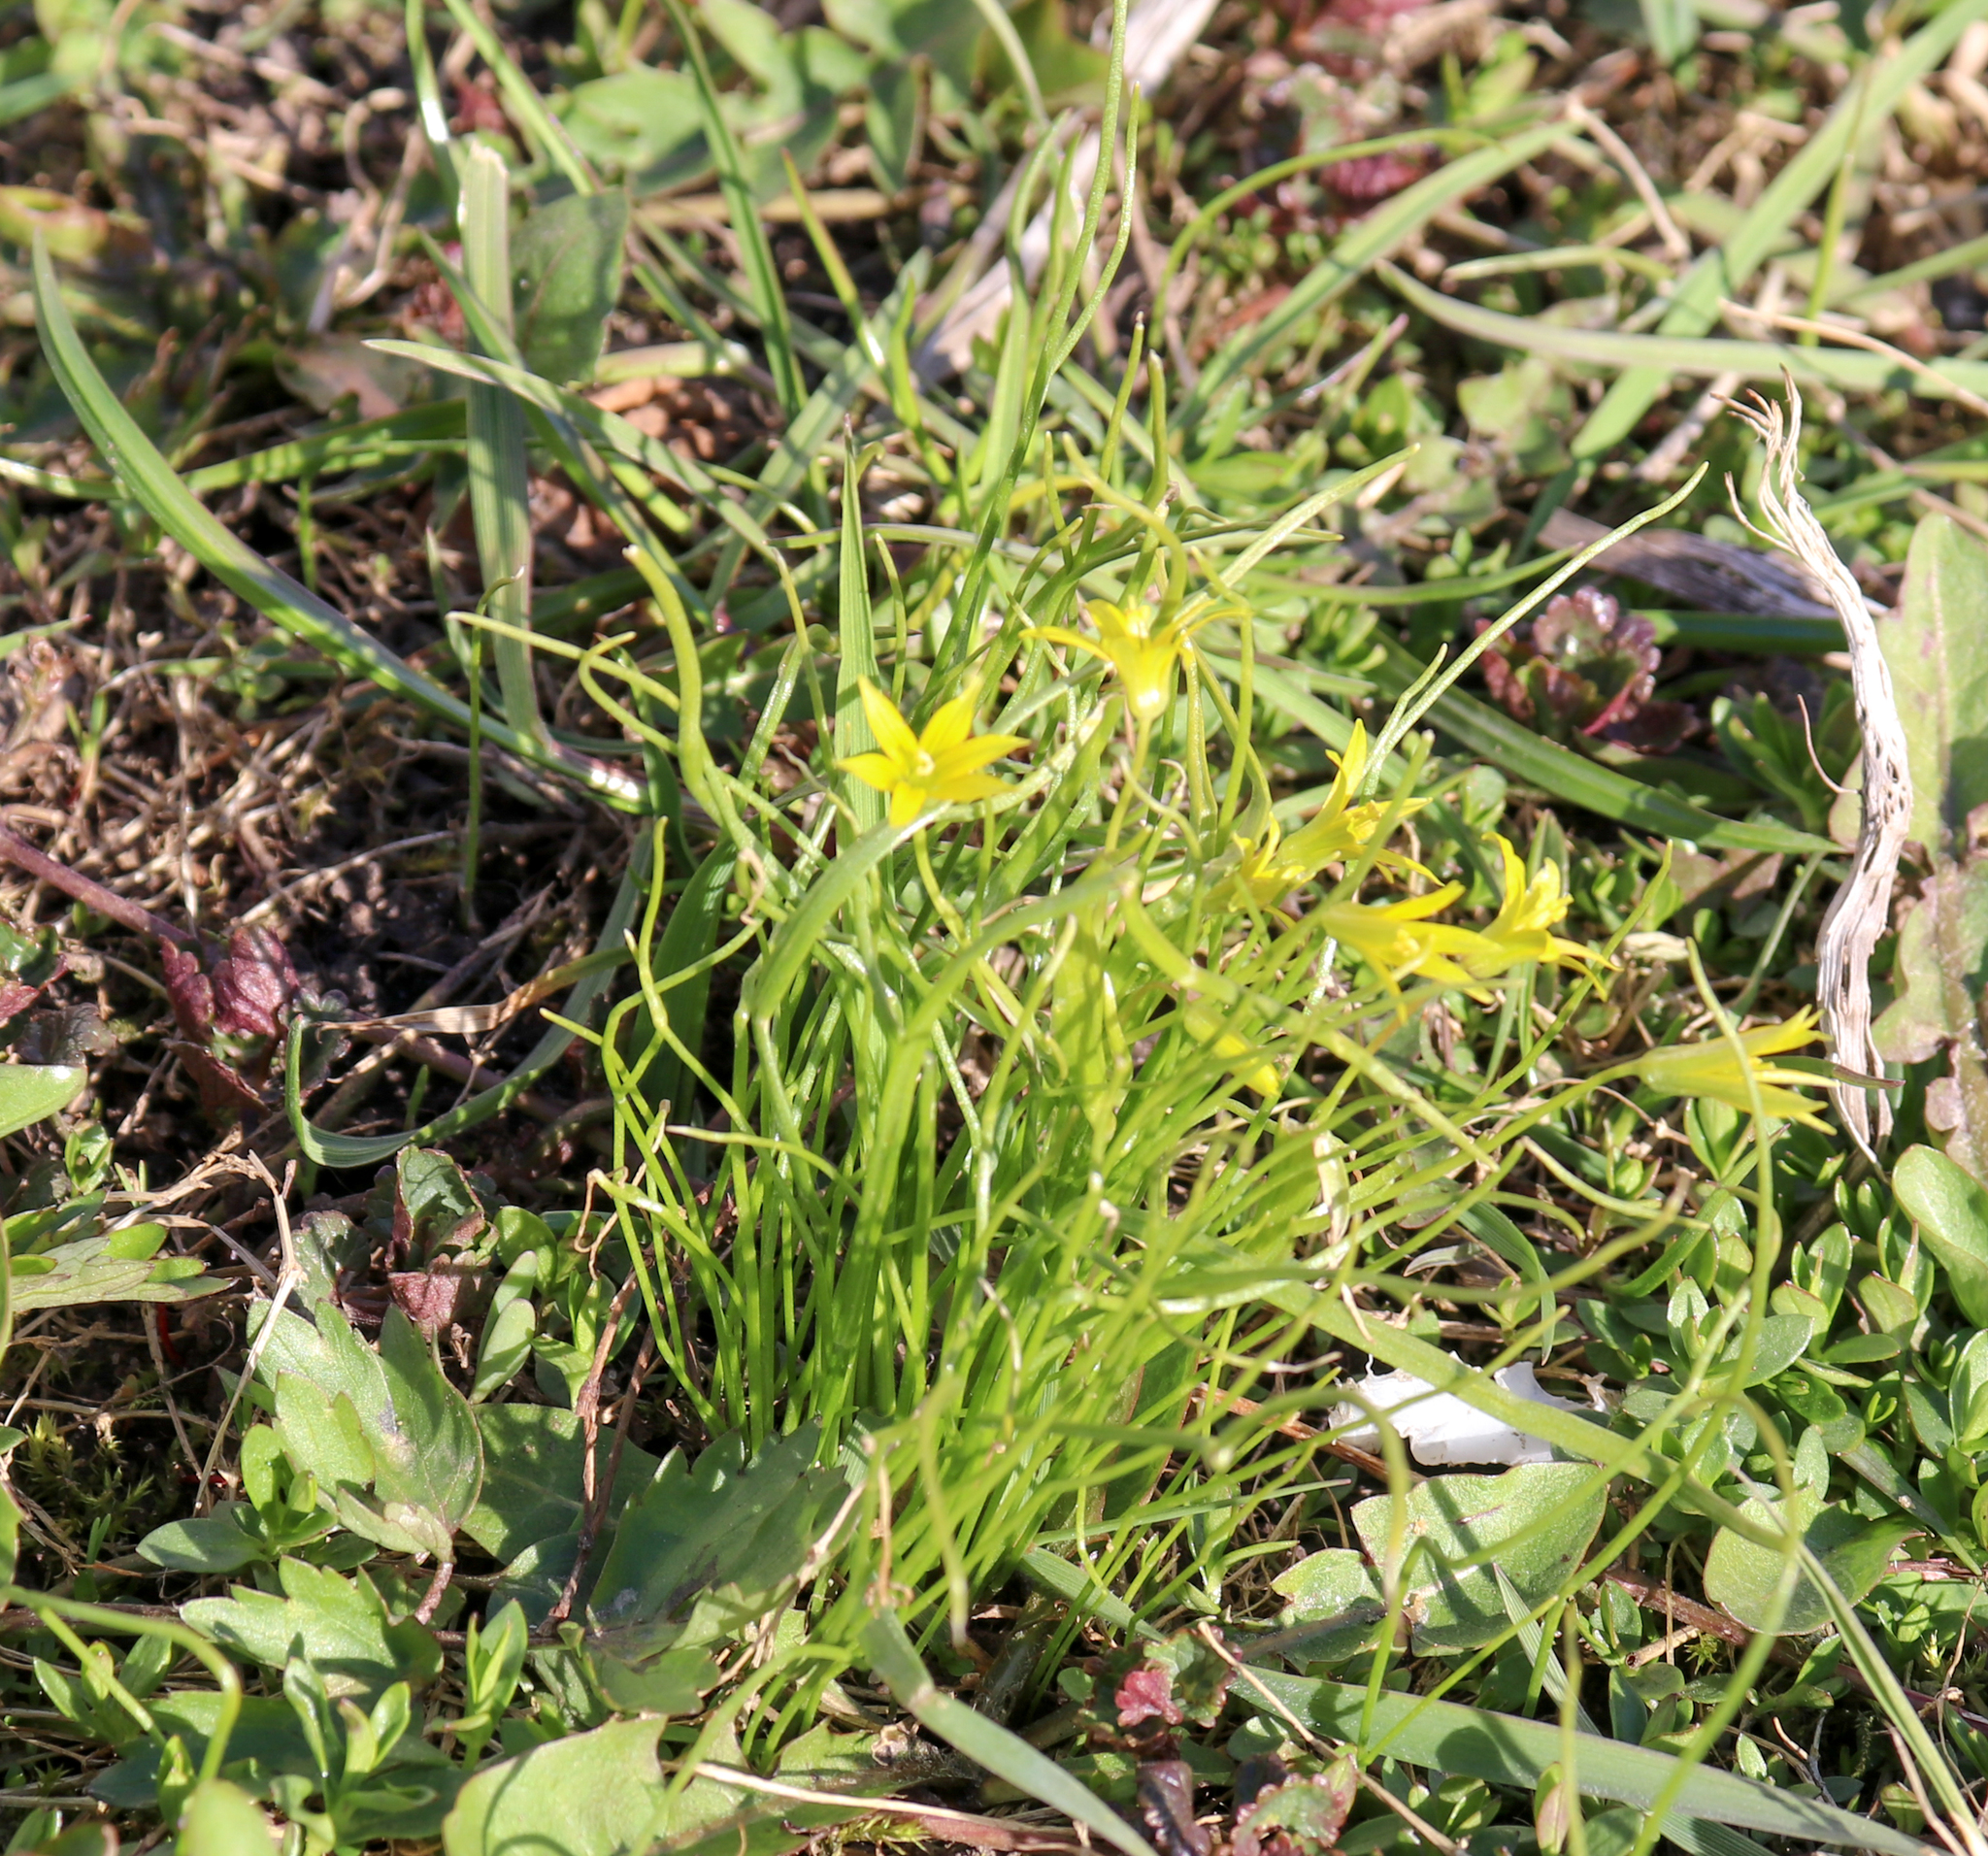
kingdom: Plantae
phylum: Tracheophyta
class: Liliopsida
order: Liliales
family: Liliaceae
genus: Gagea
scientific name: Gagea minima
